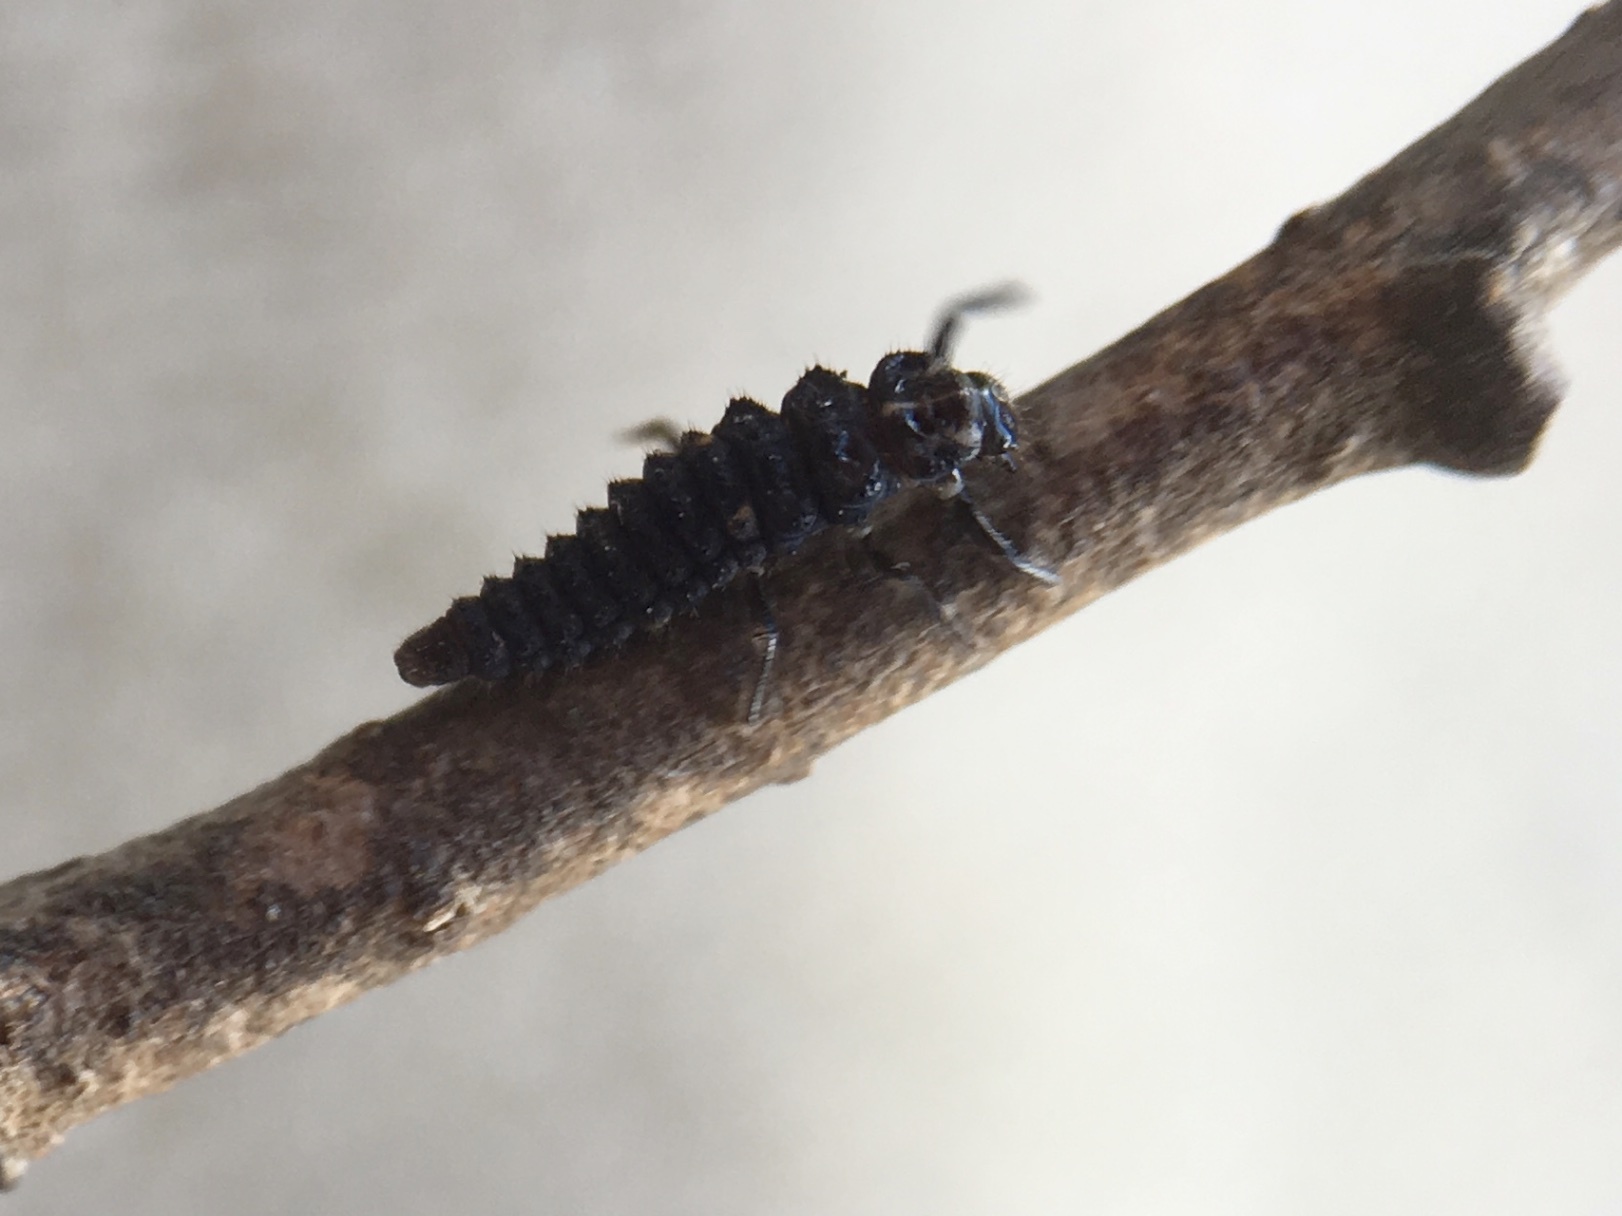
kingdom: Animalia
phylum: Arthropoda
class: Insecta
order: Coleoptera
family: Coccinellidae
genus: Adalia
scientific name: Adalia bipunctata
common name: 2-spot ladybird
